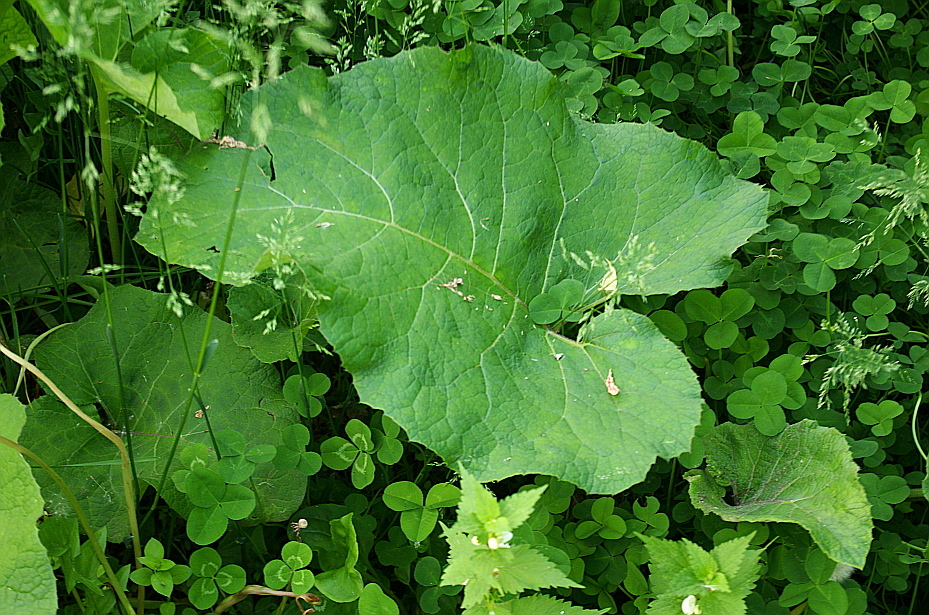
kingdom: Plantae
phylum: Tracheophyta
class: Magnoliopsida
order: Asterales
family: Asteraceae
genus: Arctium
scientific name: Arctium
